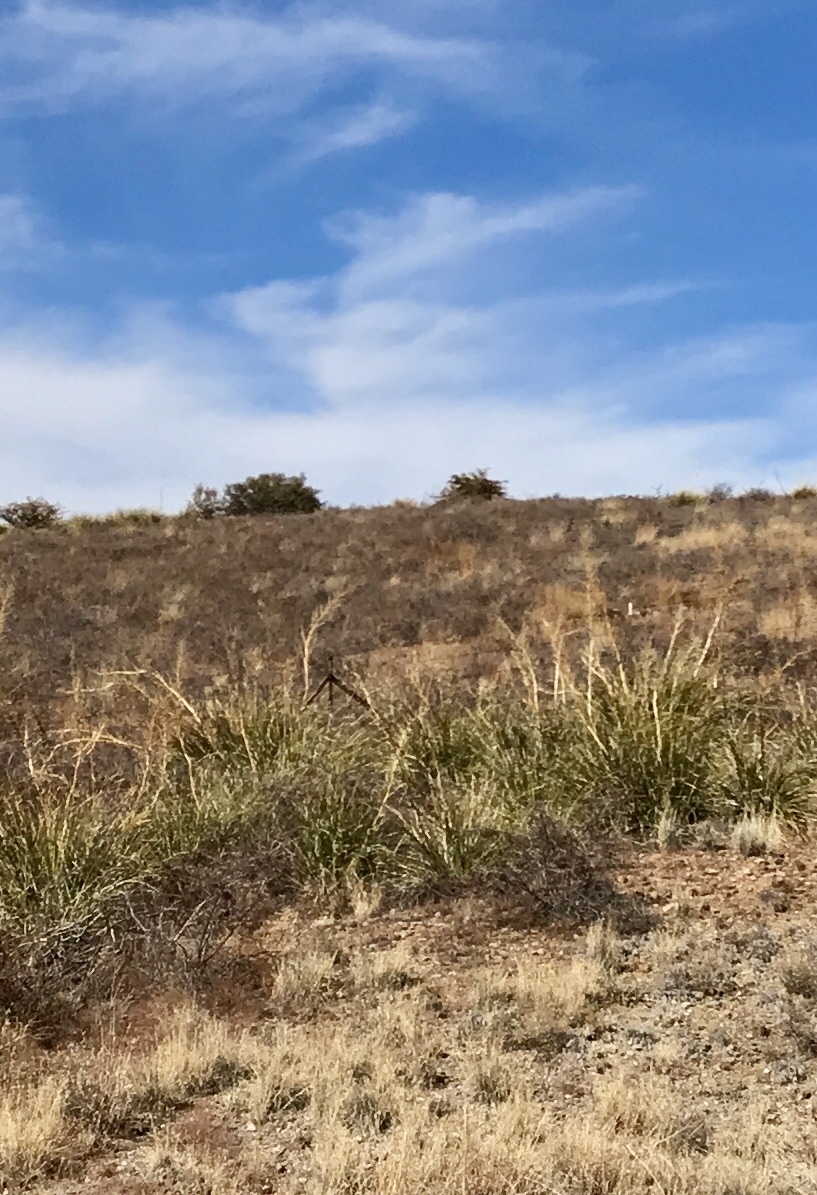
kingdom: Plantae
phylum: Tracheophyta
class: Liliopsida
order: Asparagales
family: Asparagaceae
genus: Nolina
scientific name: Nolina microcarpa
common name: Bear-grass
